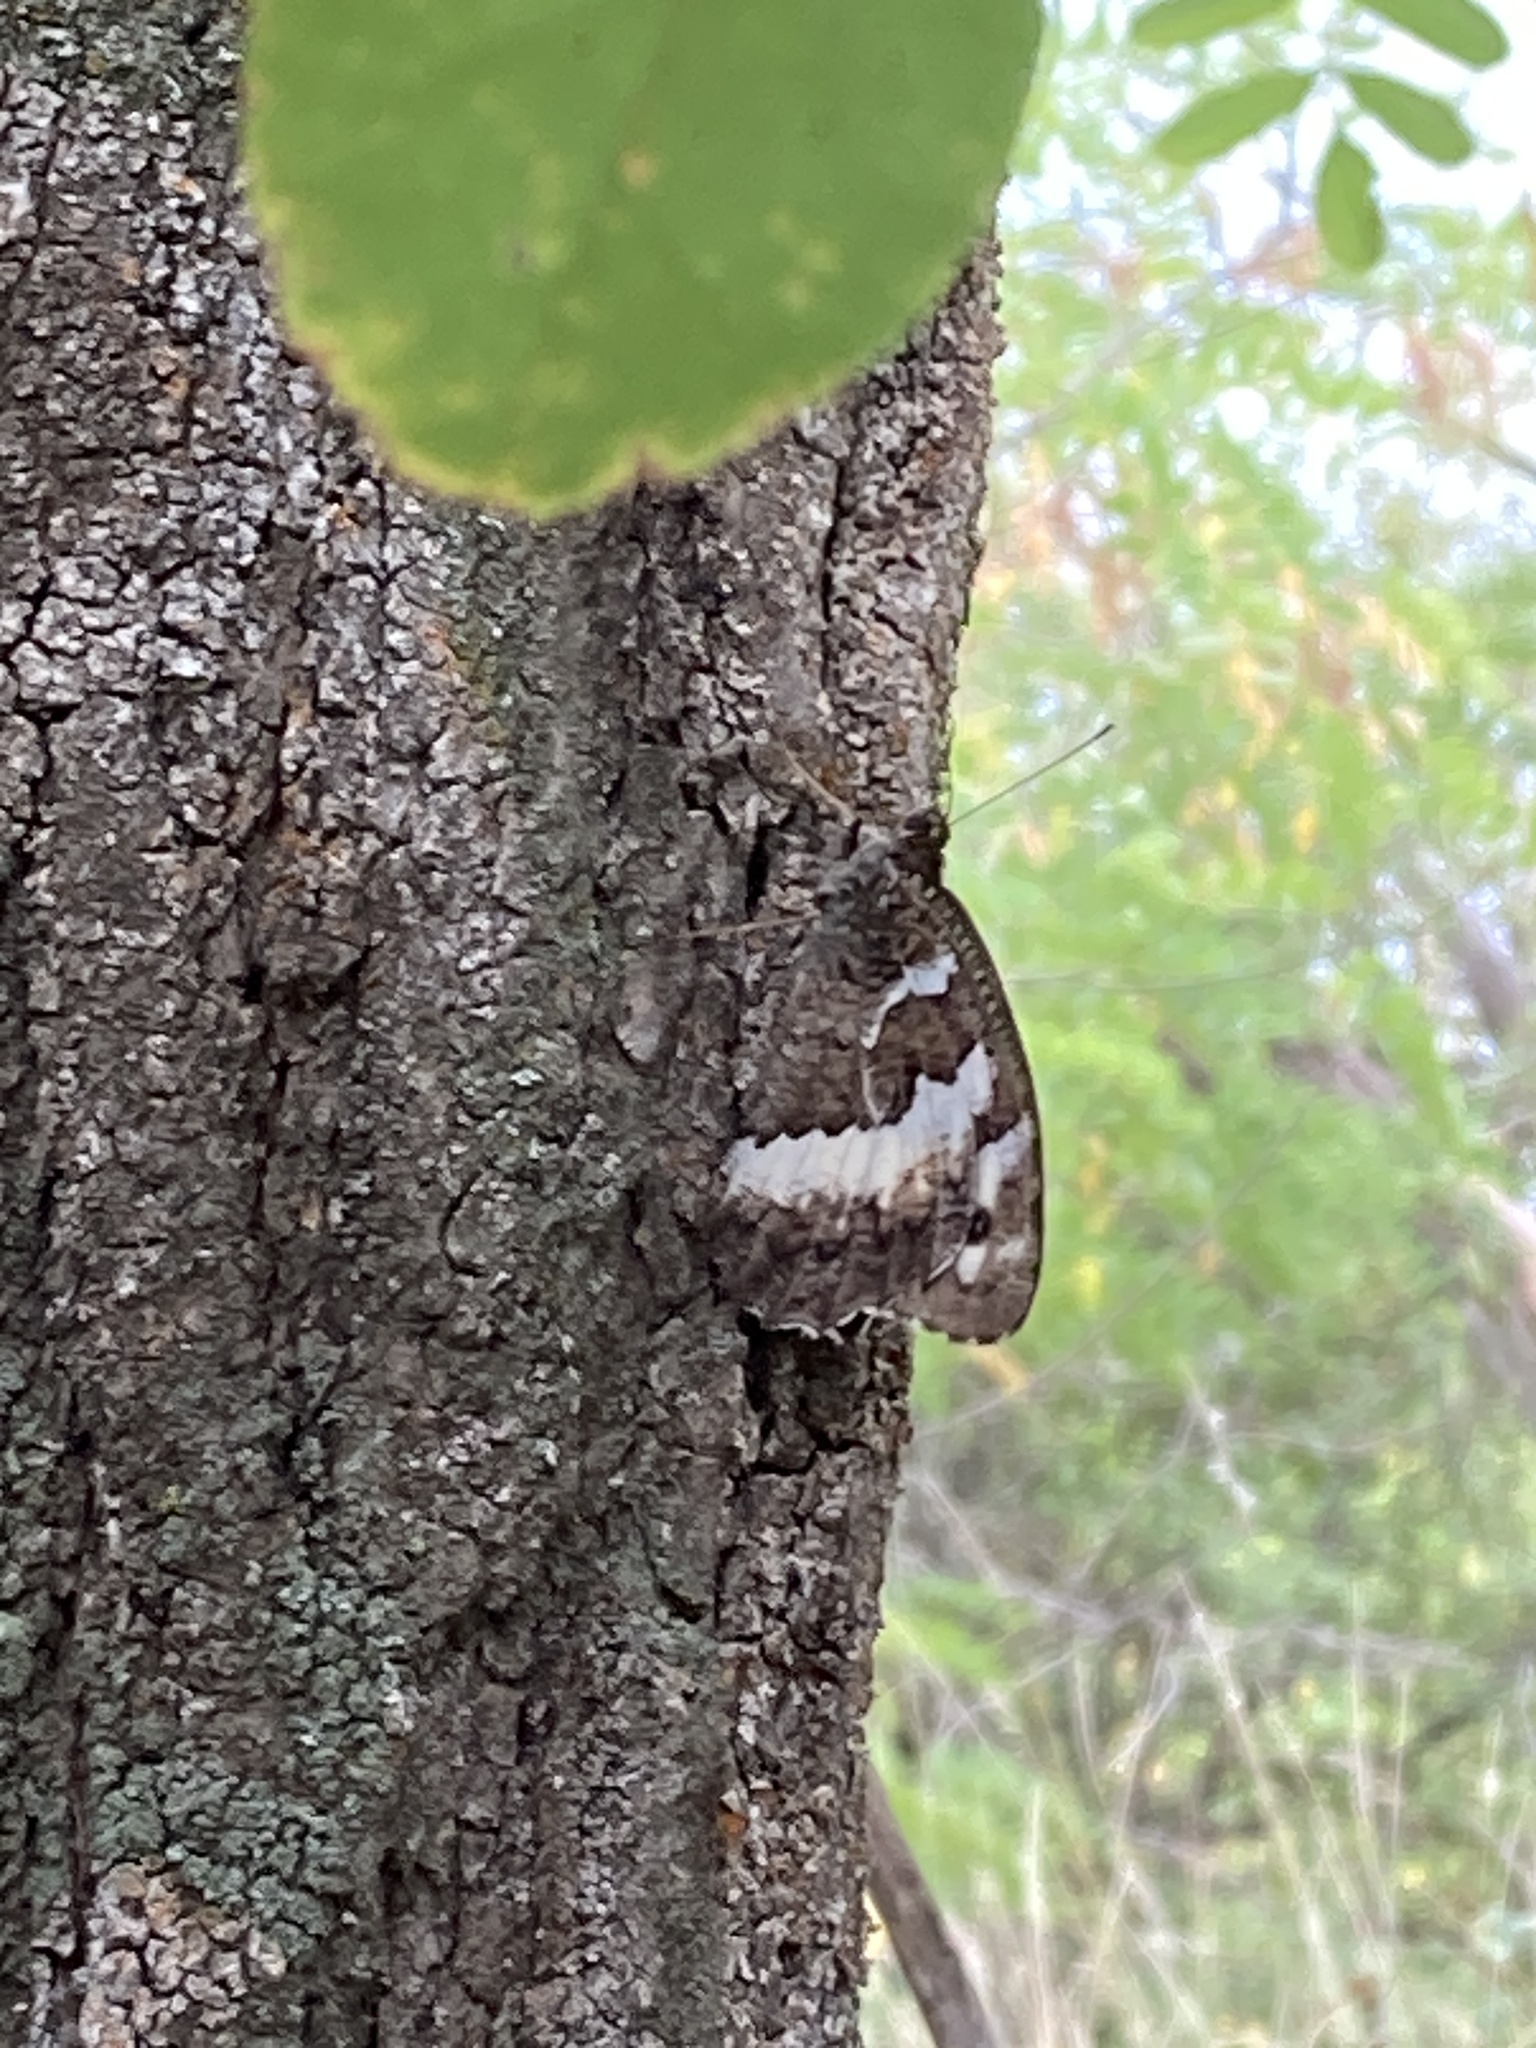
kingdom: Animalia
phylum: Arthropoda
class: Insecta
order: Lepidoptera
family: Lycaenidae
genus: Loweia
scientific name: Loweia tityrus
